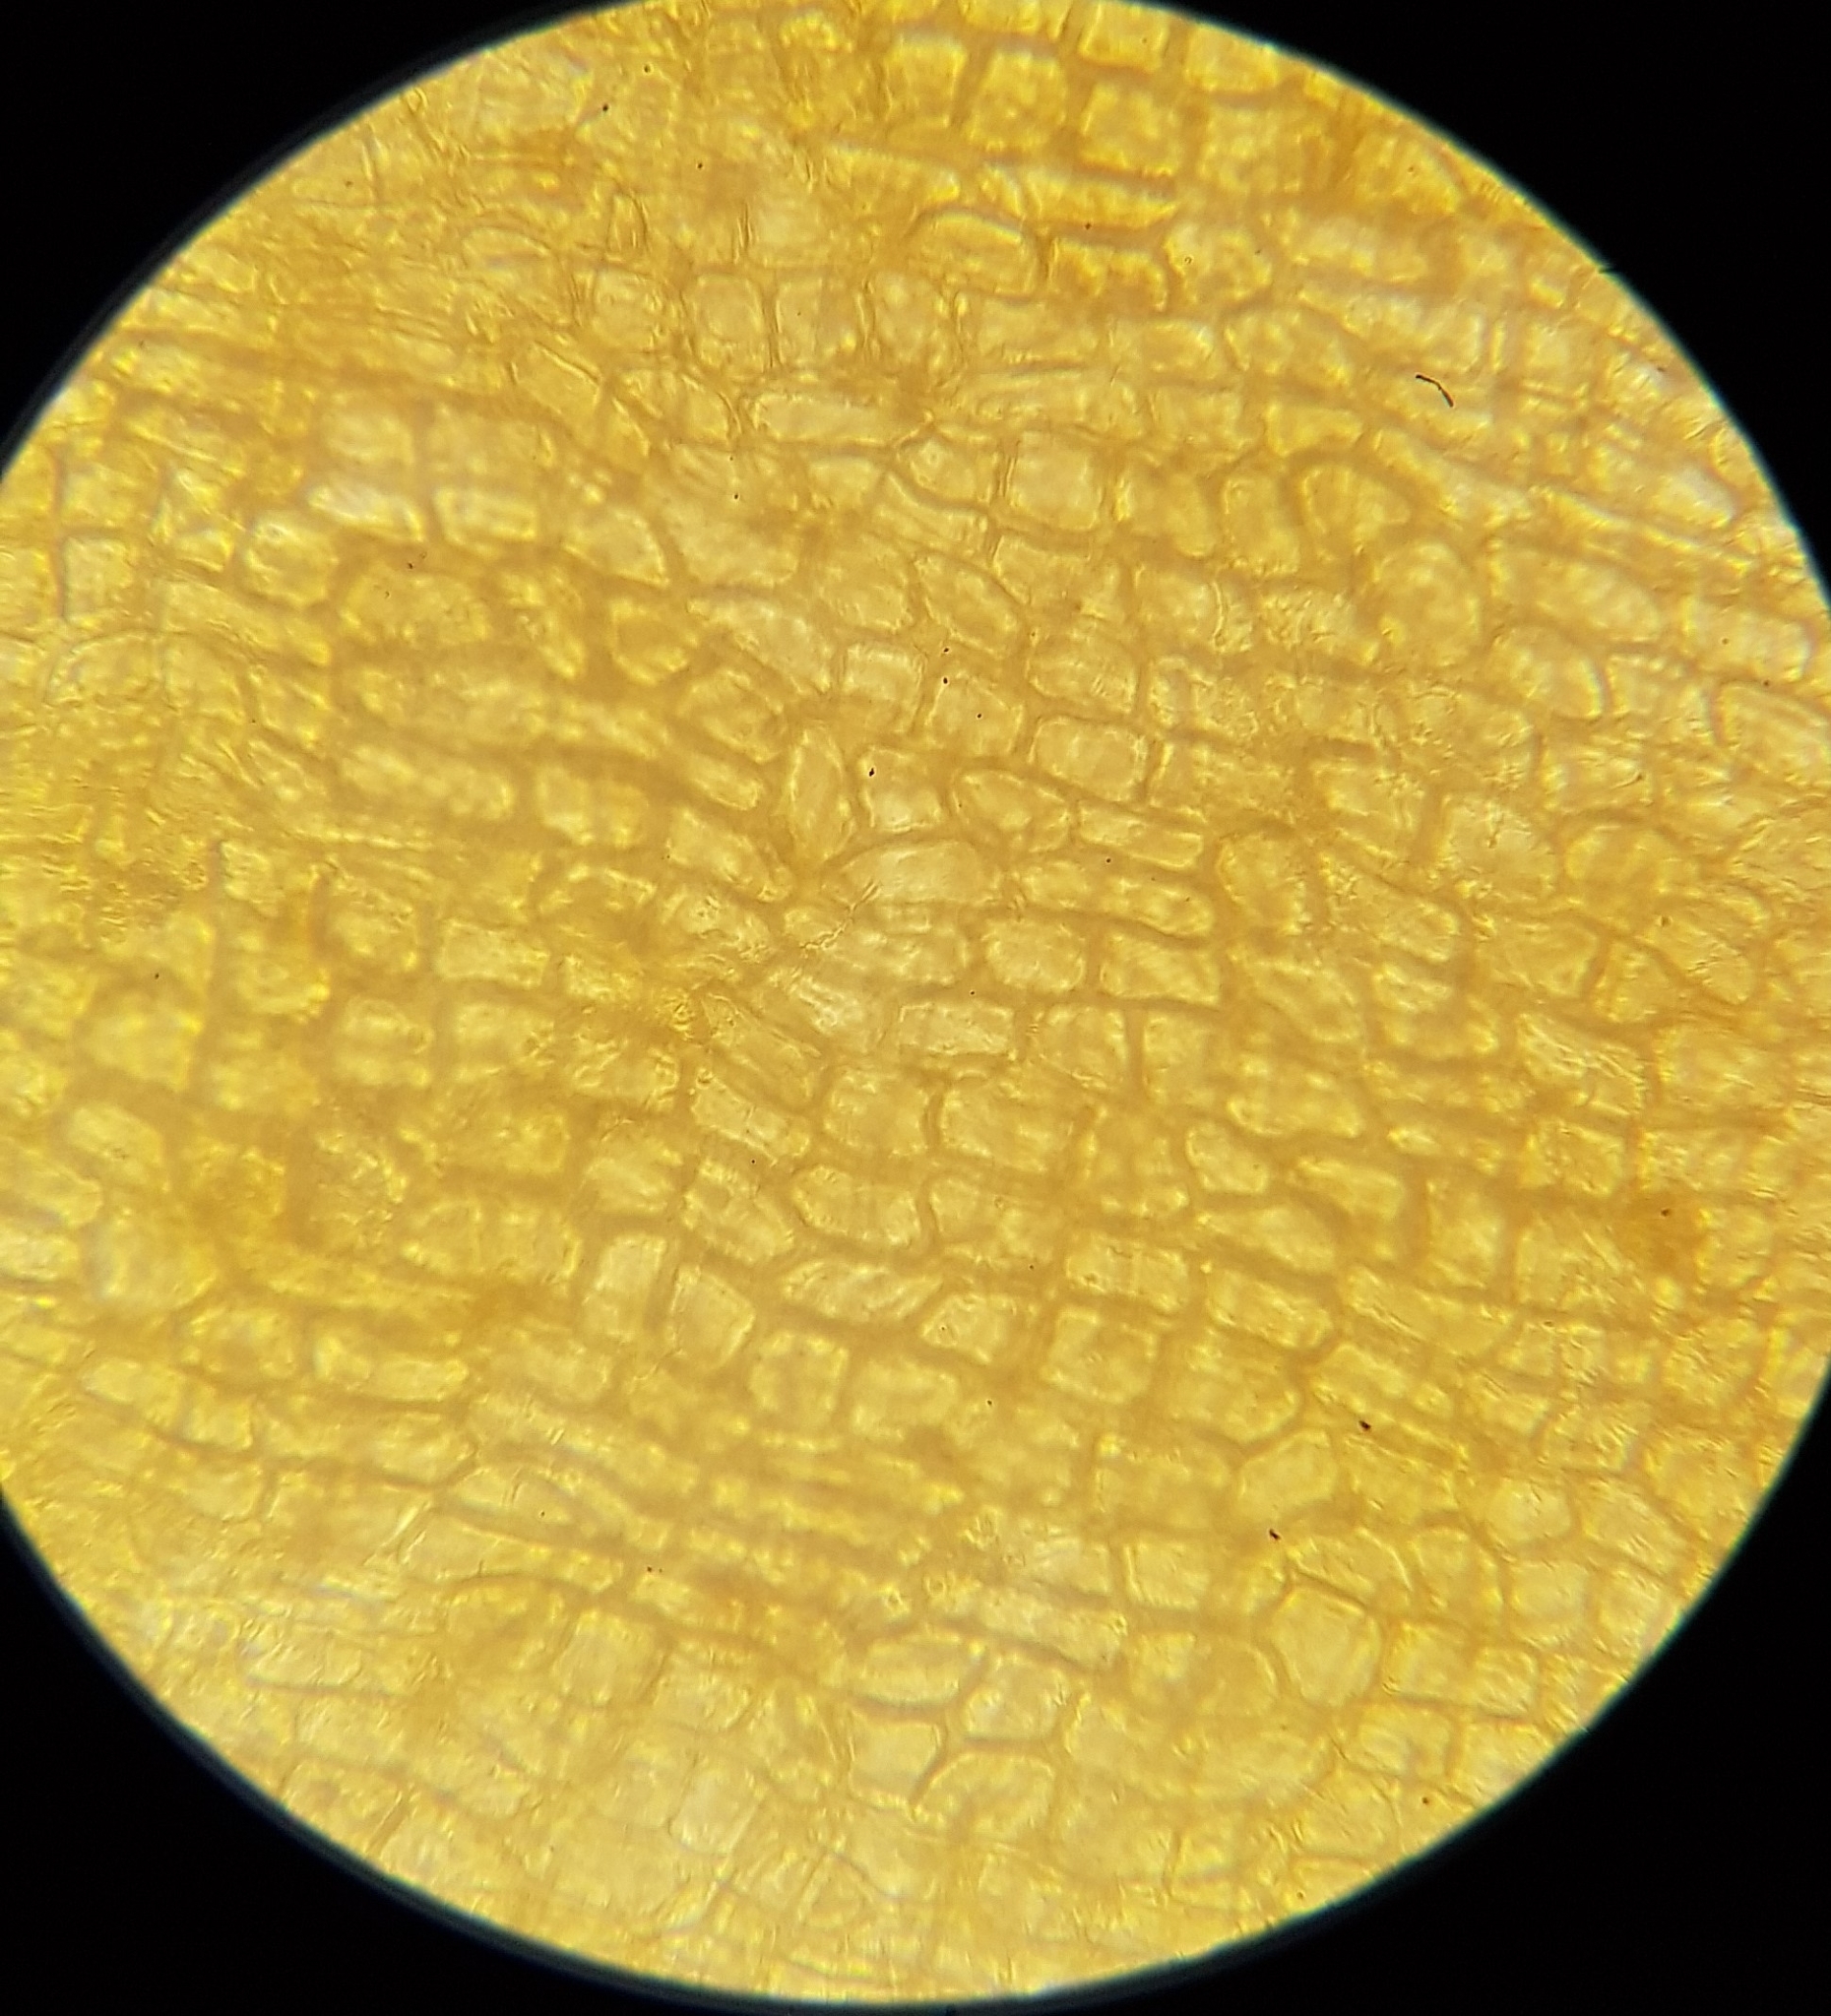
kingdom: Plantae
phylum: Bryophyta
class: Bryopsida
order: Grimmiales
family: Grimmiaceae
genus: Schistidium
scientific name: Schistidium apocarpum
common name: Radiate bloom moss
